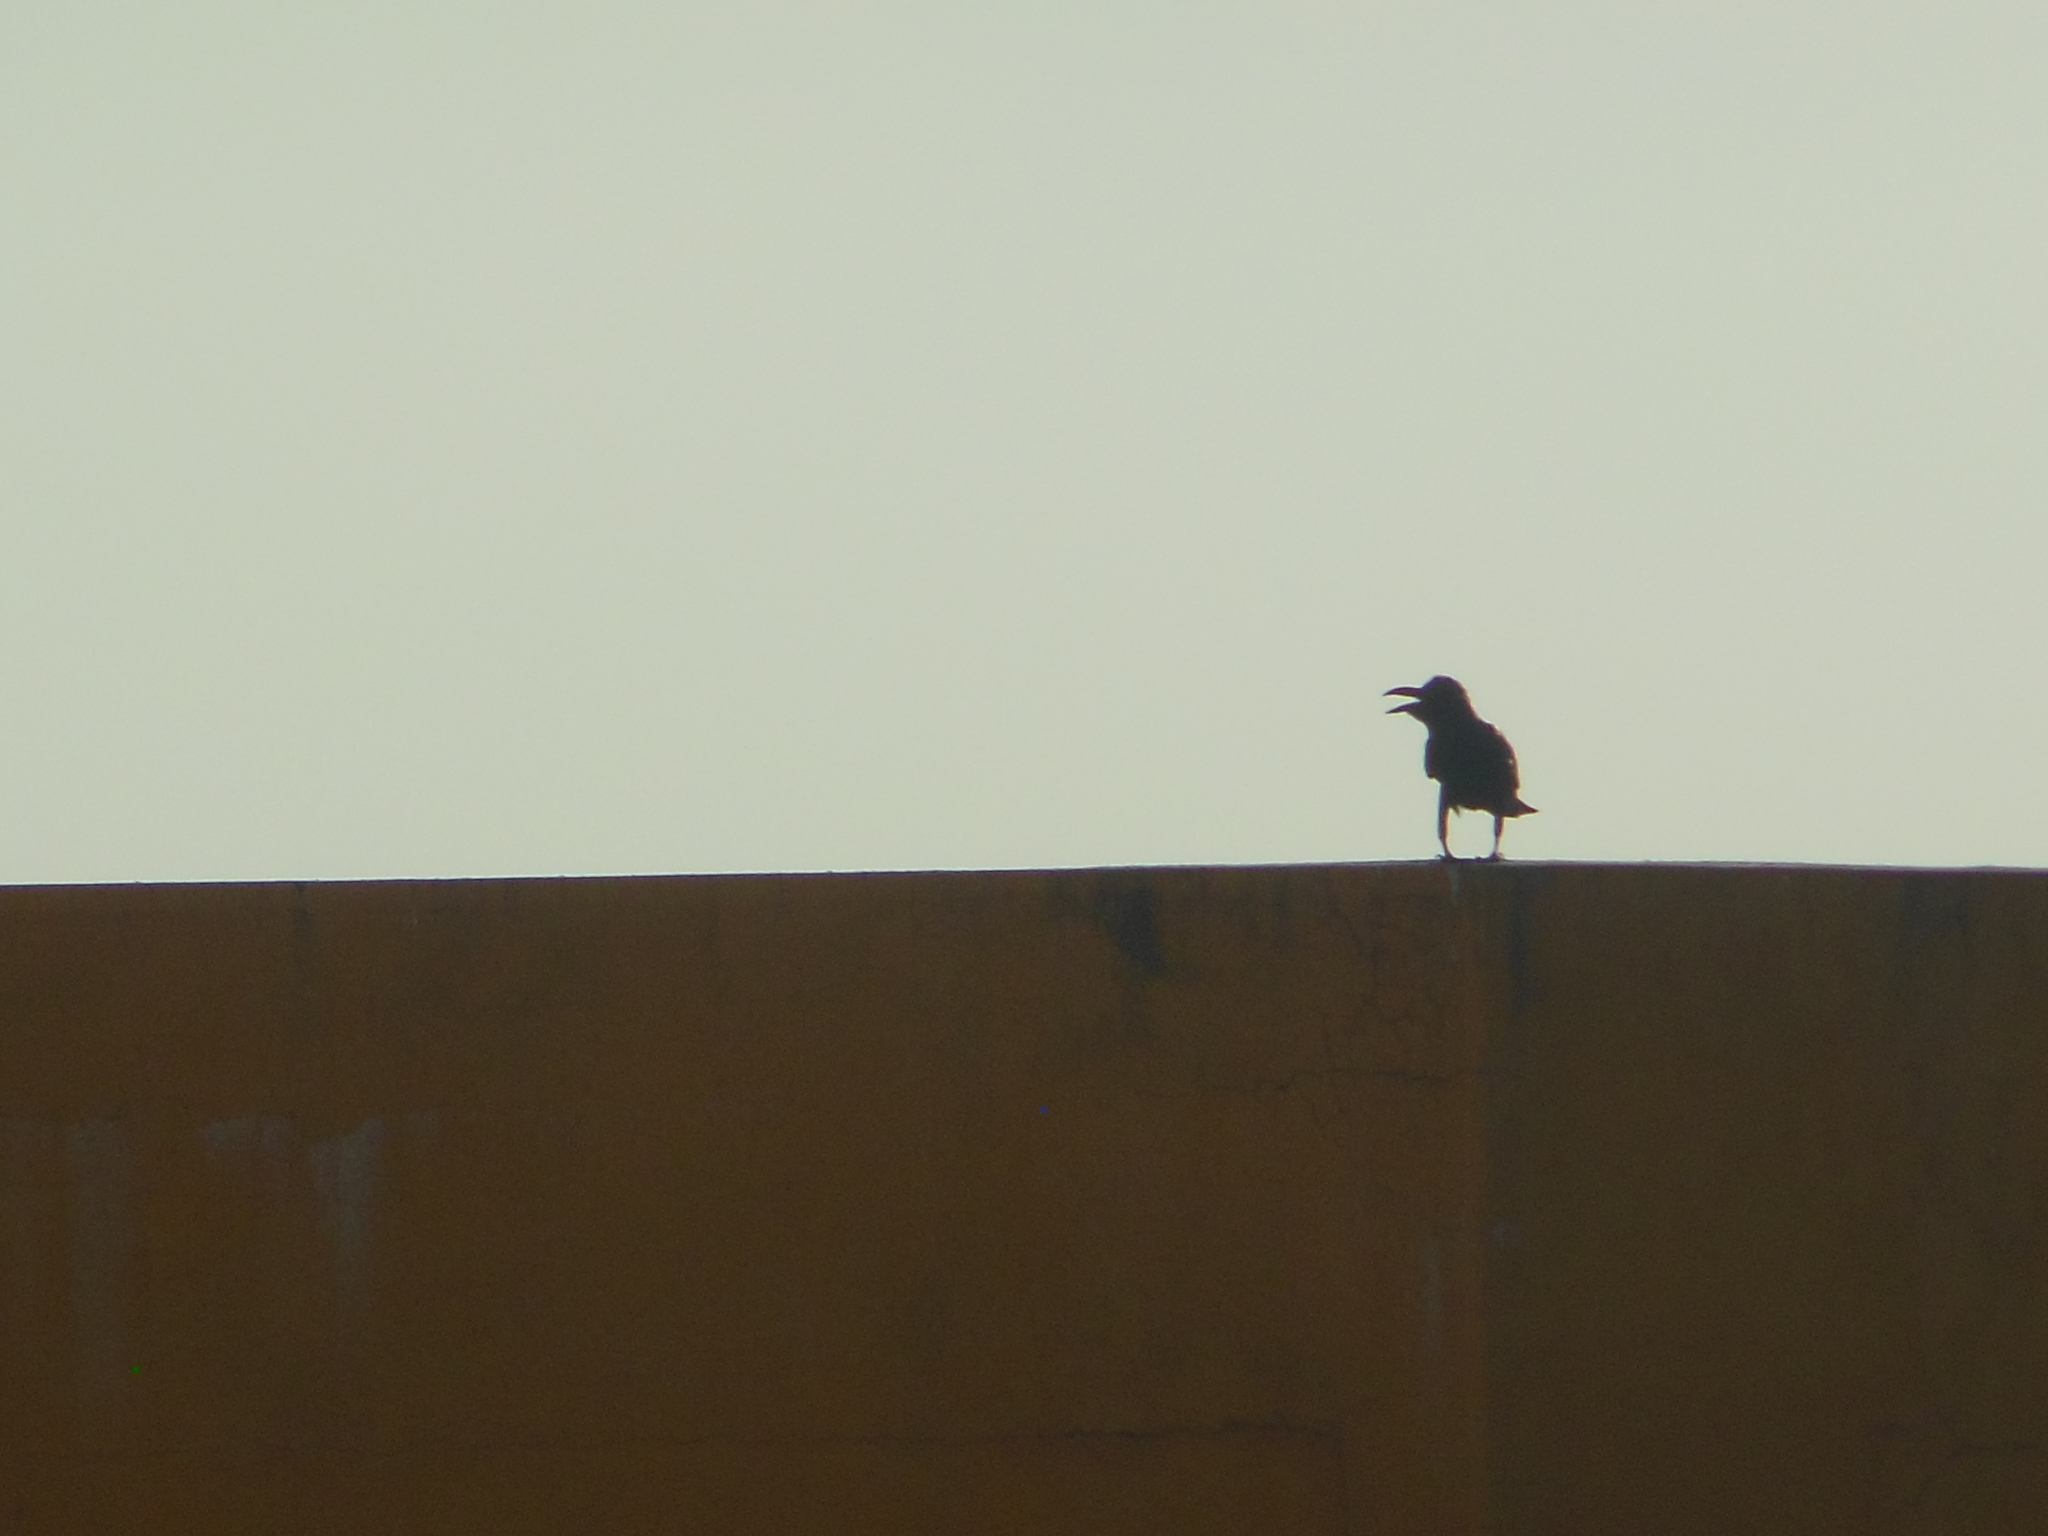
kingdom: Animalia
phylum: Chordata
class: Aves
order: Passeriformes
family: Corvidae
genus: Corvus
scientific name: Corvus macrorhynchos
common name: Large-billed crow
